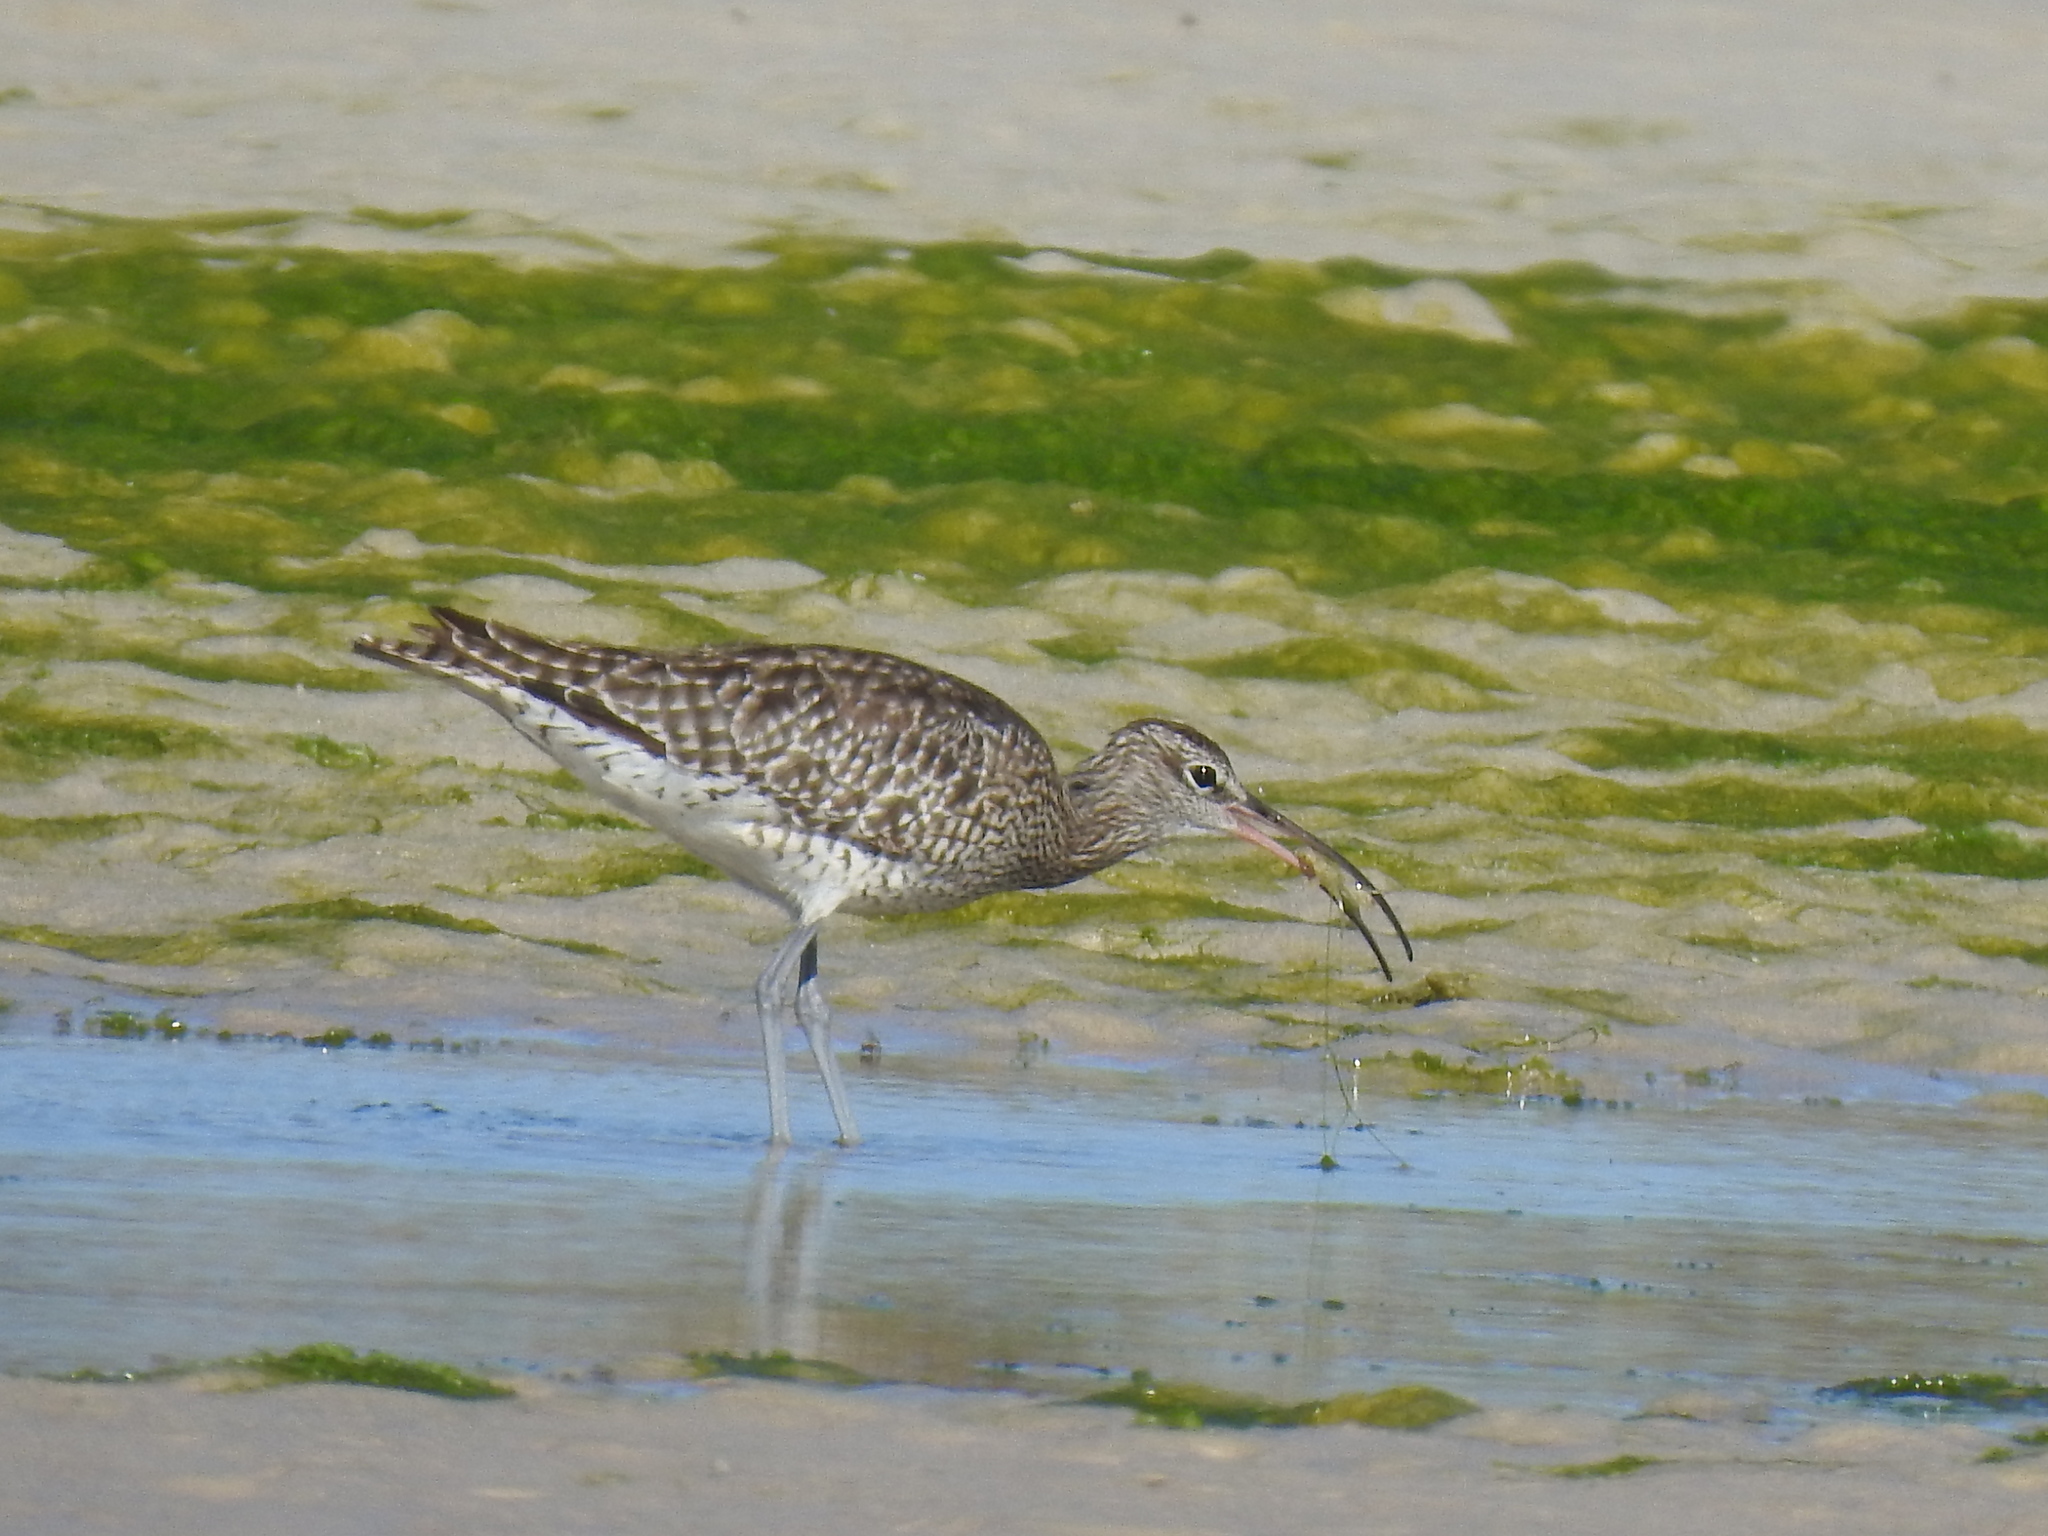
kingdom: Animalia
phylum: Chordata
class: Aves
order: Charadriiformes
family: Scolopacidae
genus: Numenius
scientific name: Numenius phaeopus
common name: Whimbrel
